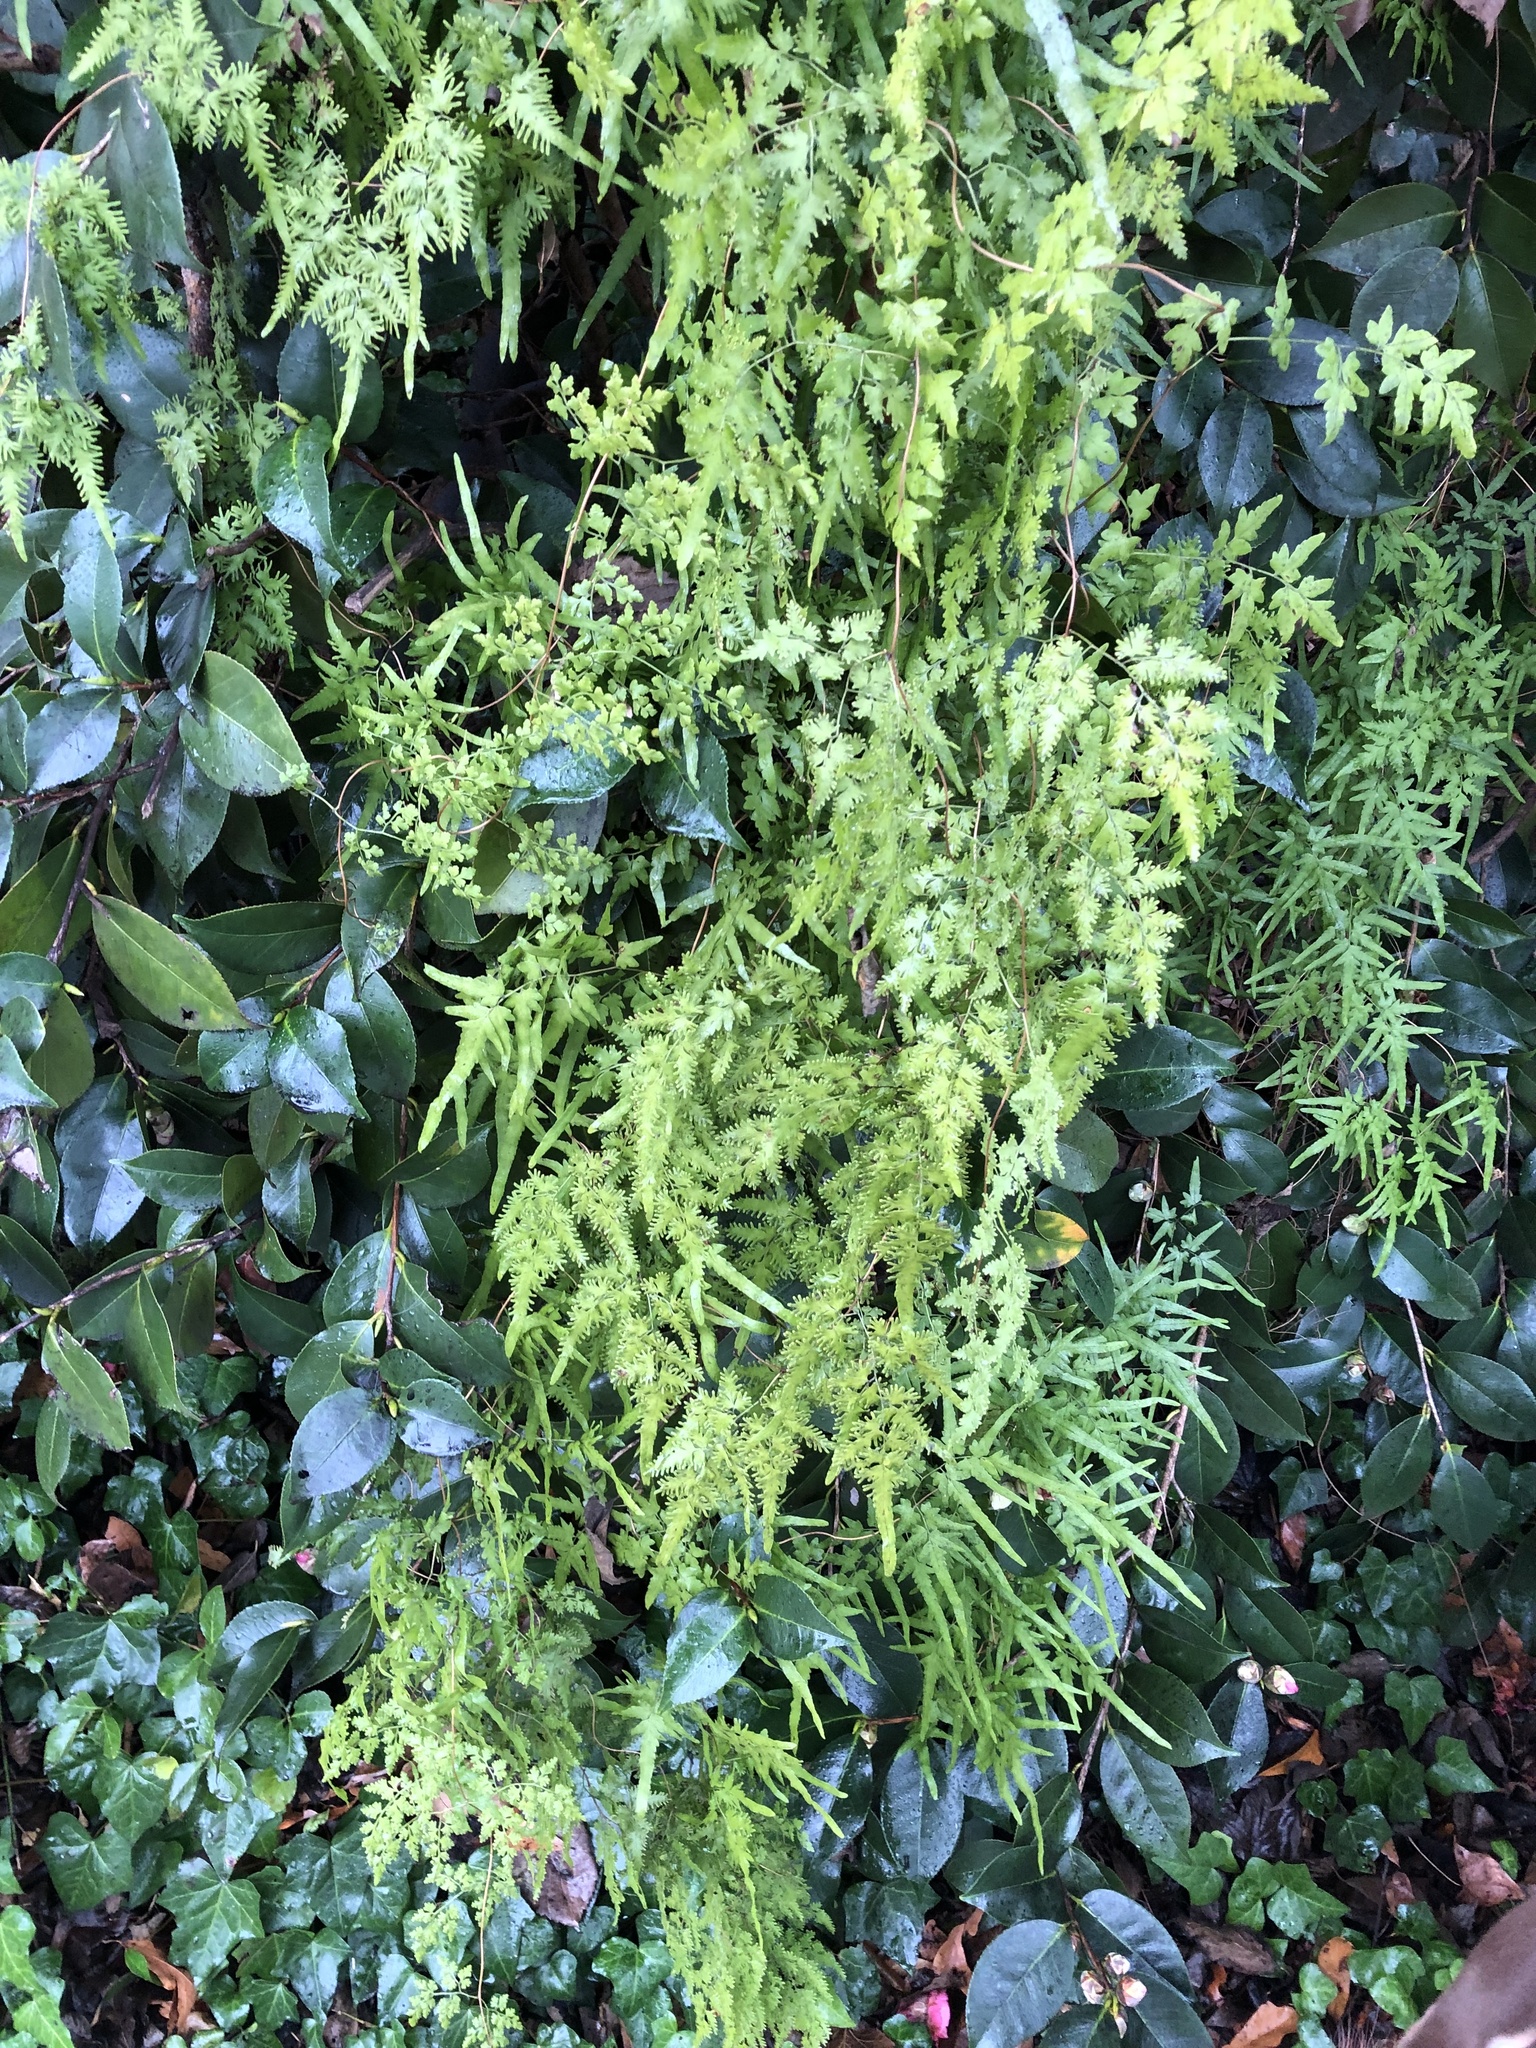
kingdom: Plantae
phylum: Tracheophyta
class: Polypodiopsida
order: Schizaeales
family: Lygodiaceae
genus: Lygodium
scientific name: Lygodium japonicum
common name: Japanese climbing fern
